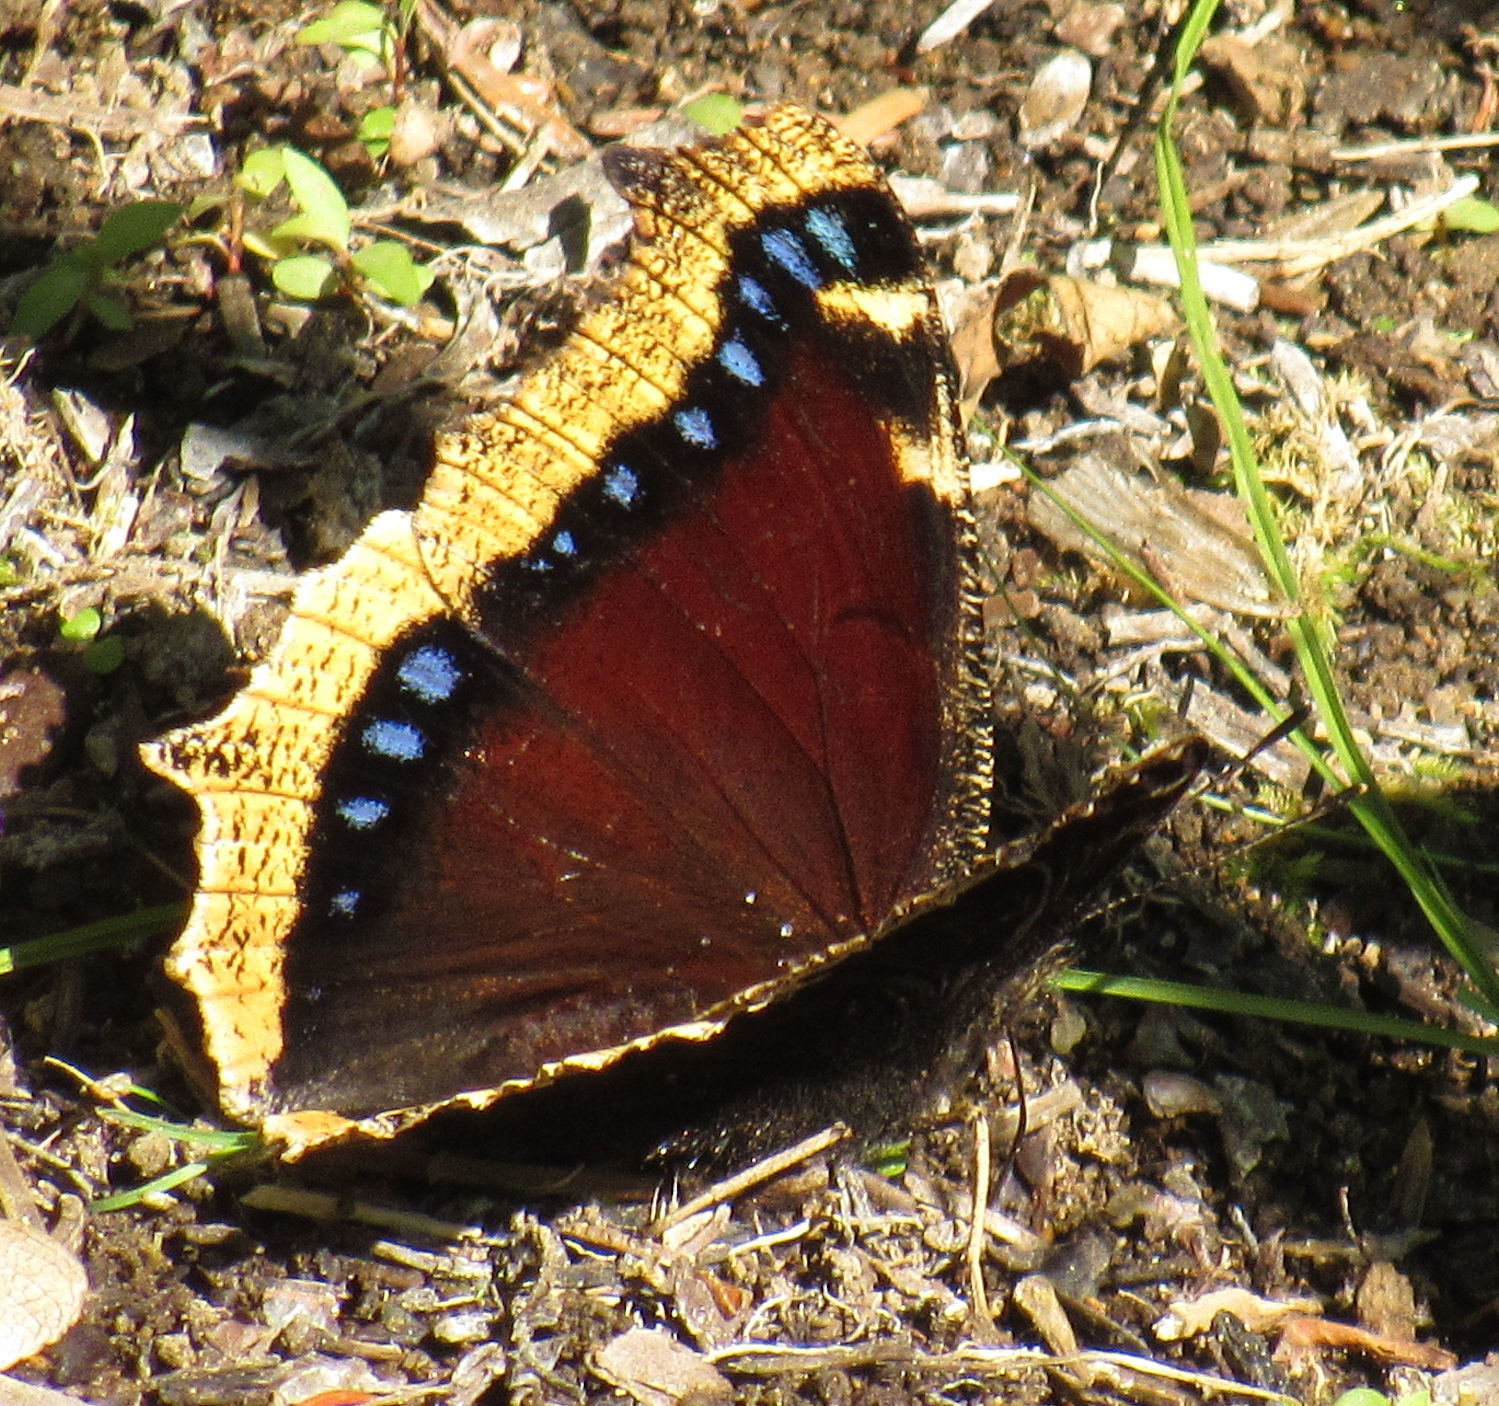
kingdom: Animalia
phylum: Arthropoda
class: Insecta
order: Lepidoptera
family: Nymphalidae
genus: Nymphalis
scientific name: Nymphalis antiopa
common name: Camberwell beauty
